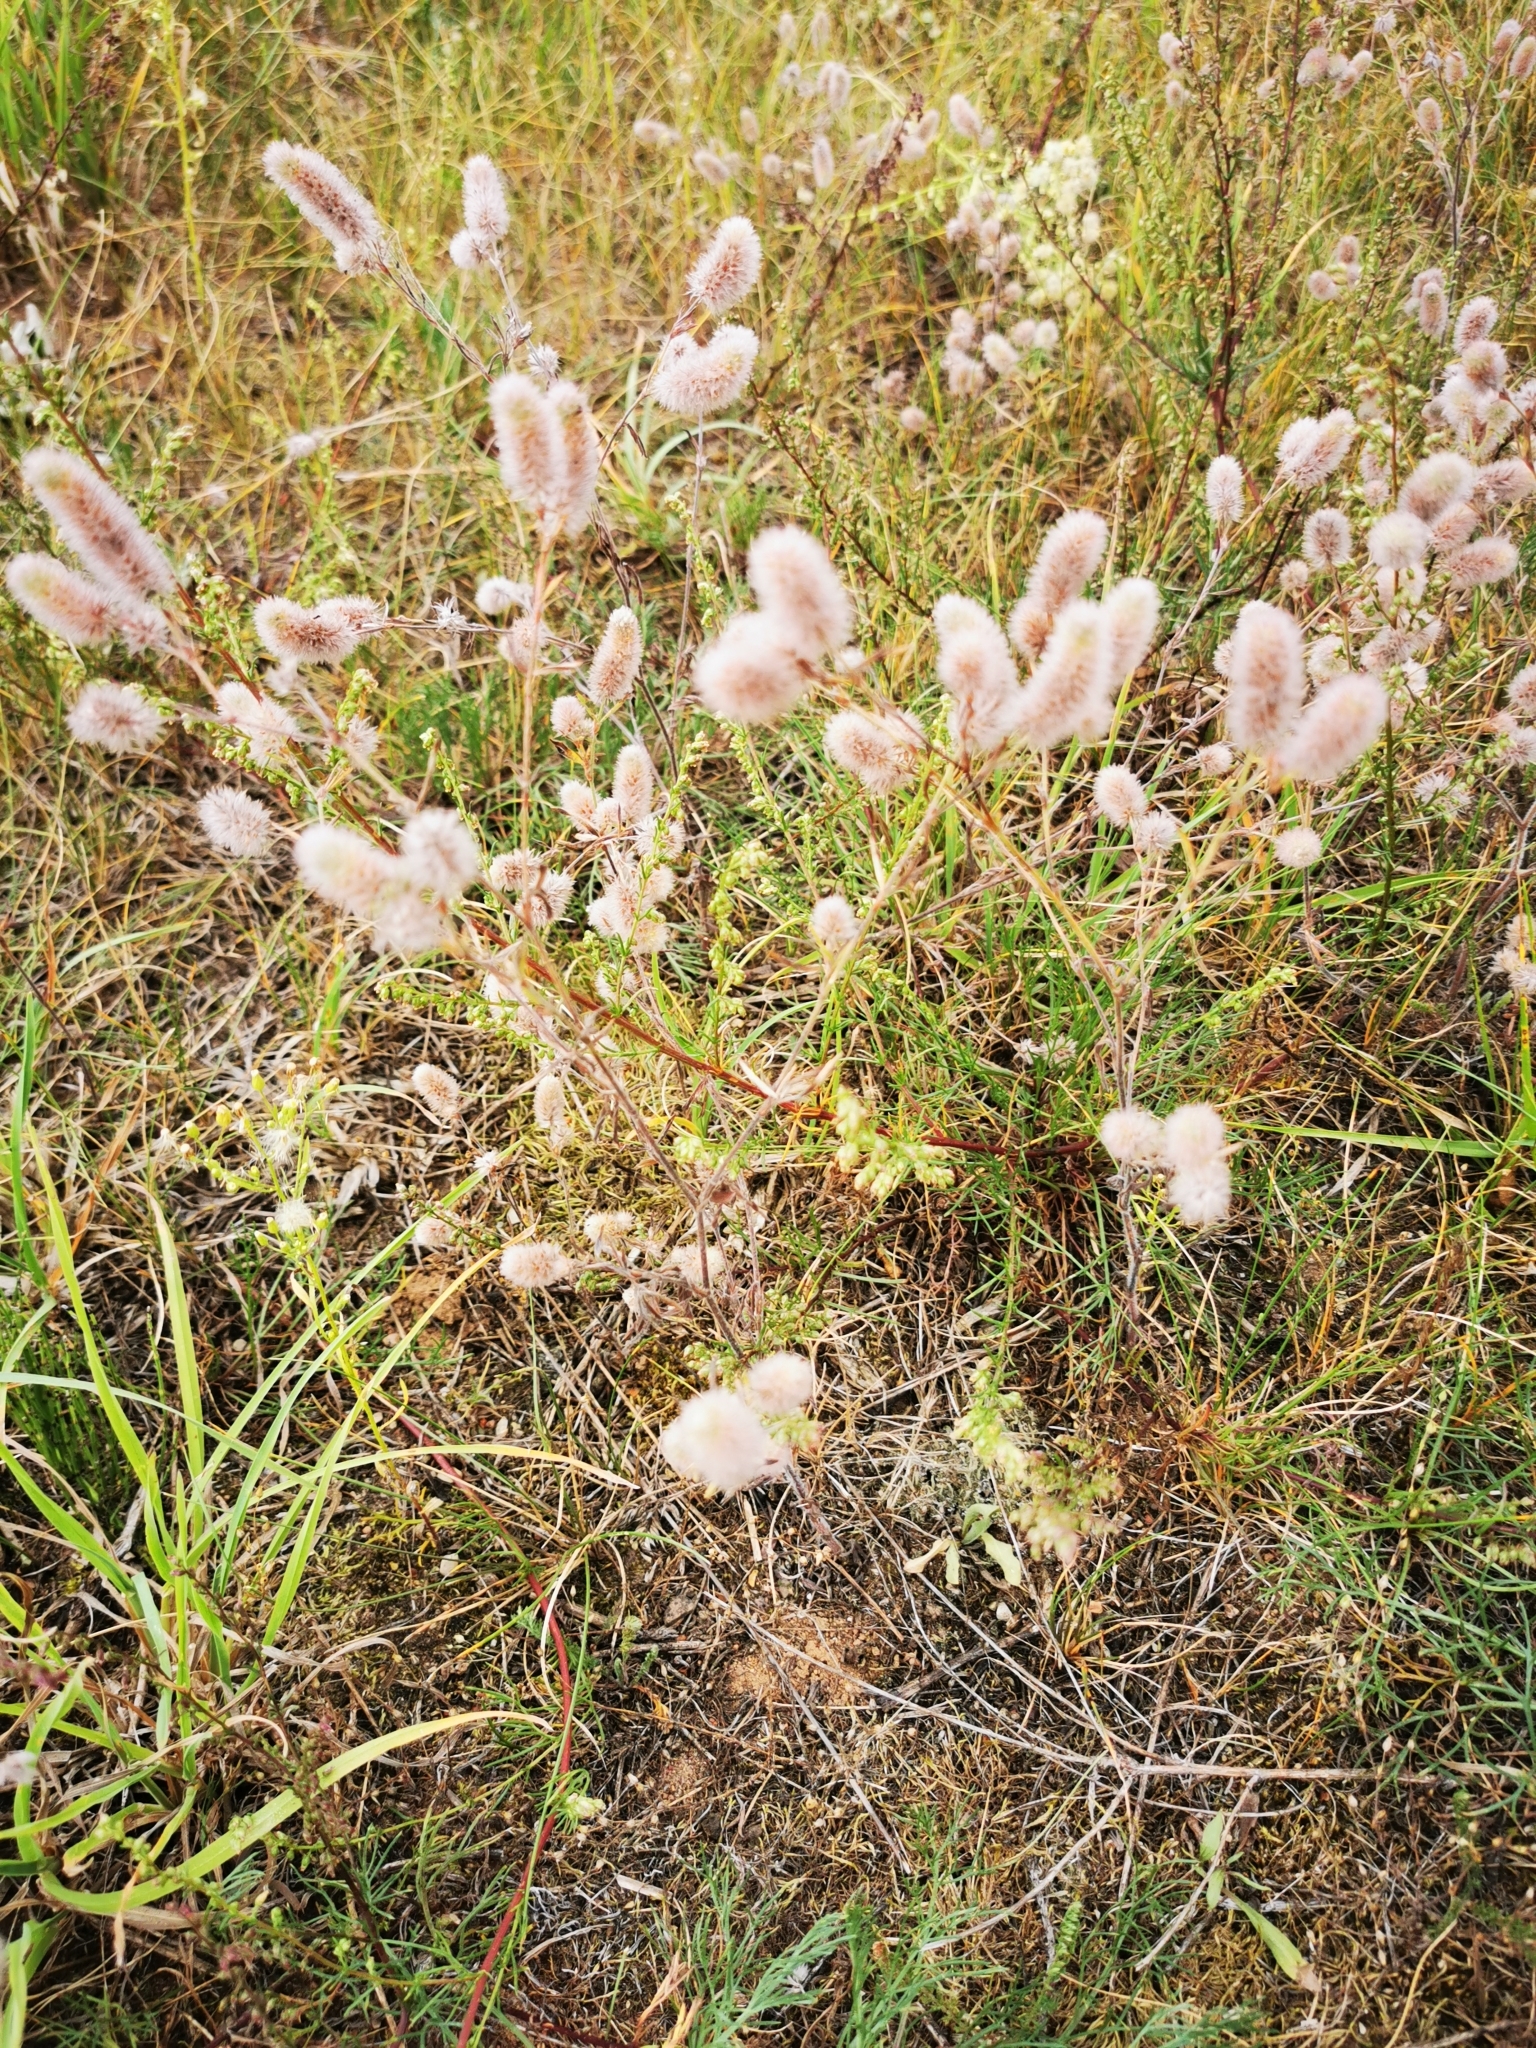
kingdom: Plantae
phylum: Tracheophyta
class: Magnoliopsida
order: Fabales
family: Fabaceae
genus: Trifolium
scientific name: Trifolium arvense
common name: Hare's-foot clover
